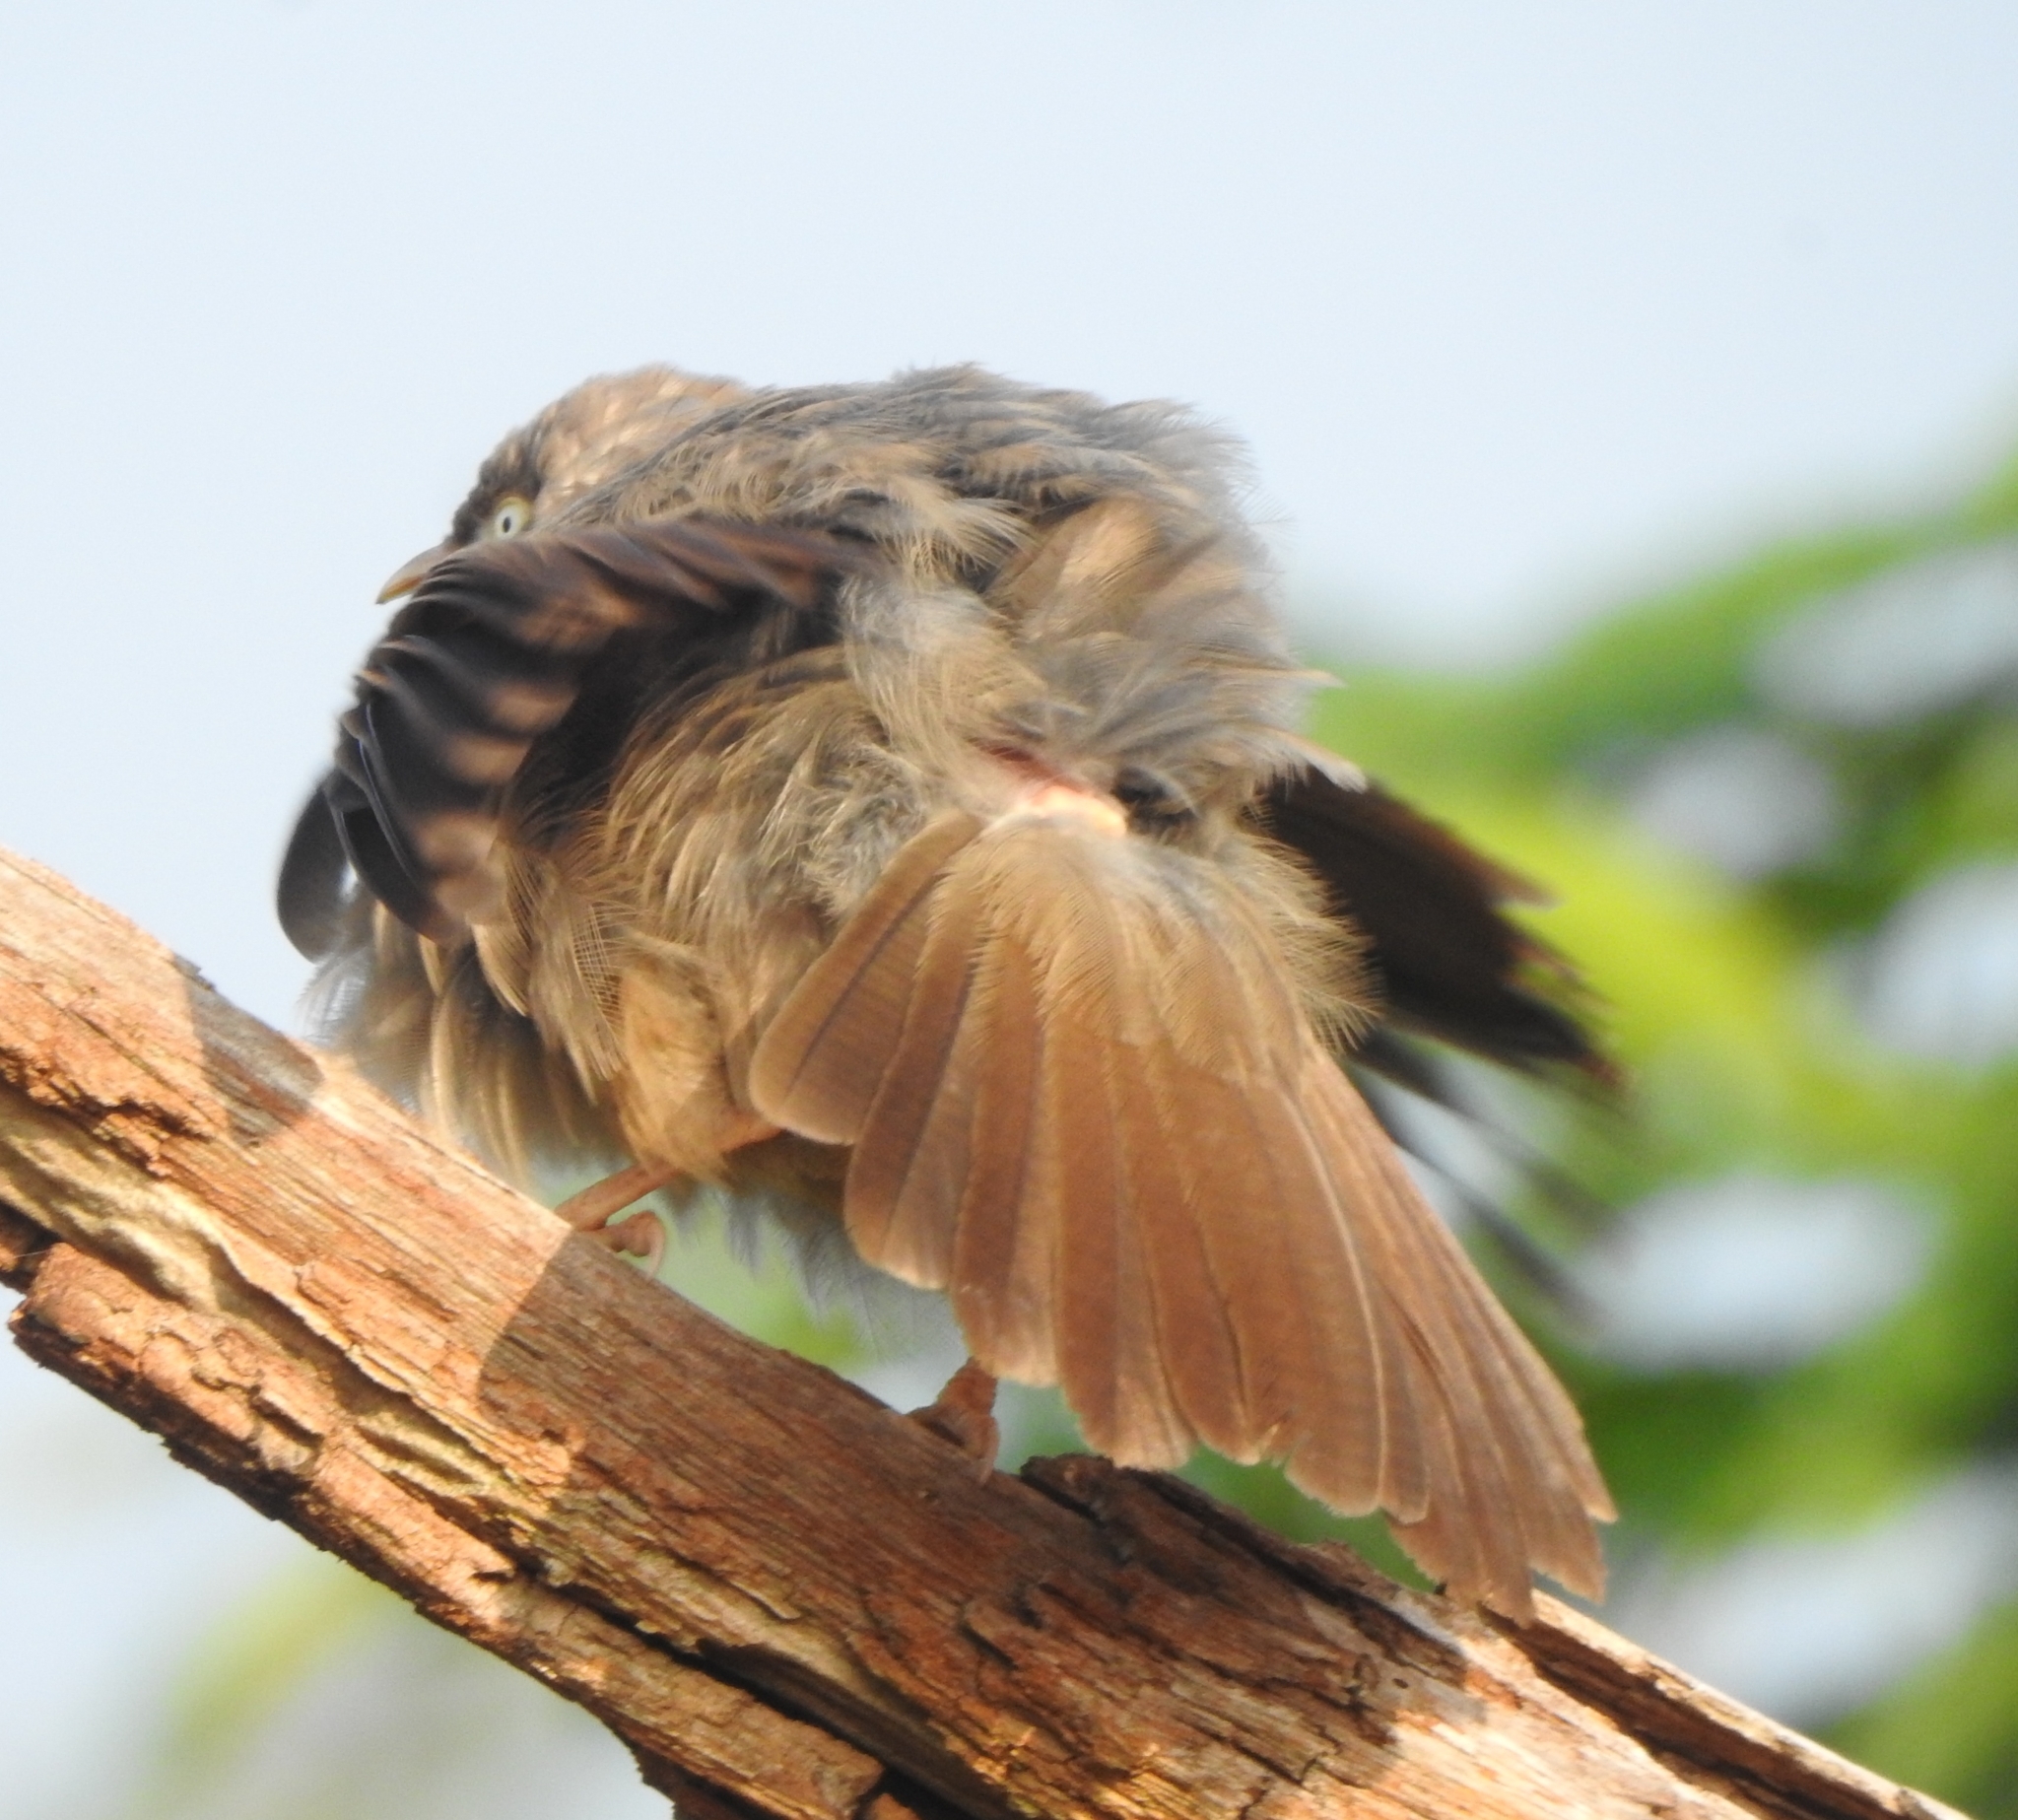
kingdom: Animalia
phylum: Chordata
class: Aves
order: Passeriformes
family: Leiothrichidae
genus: Turdoides
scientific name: Turdoides striata
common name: Jungle babbler
